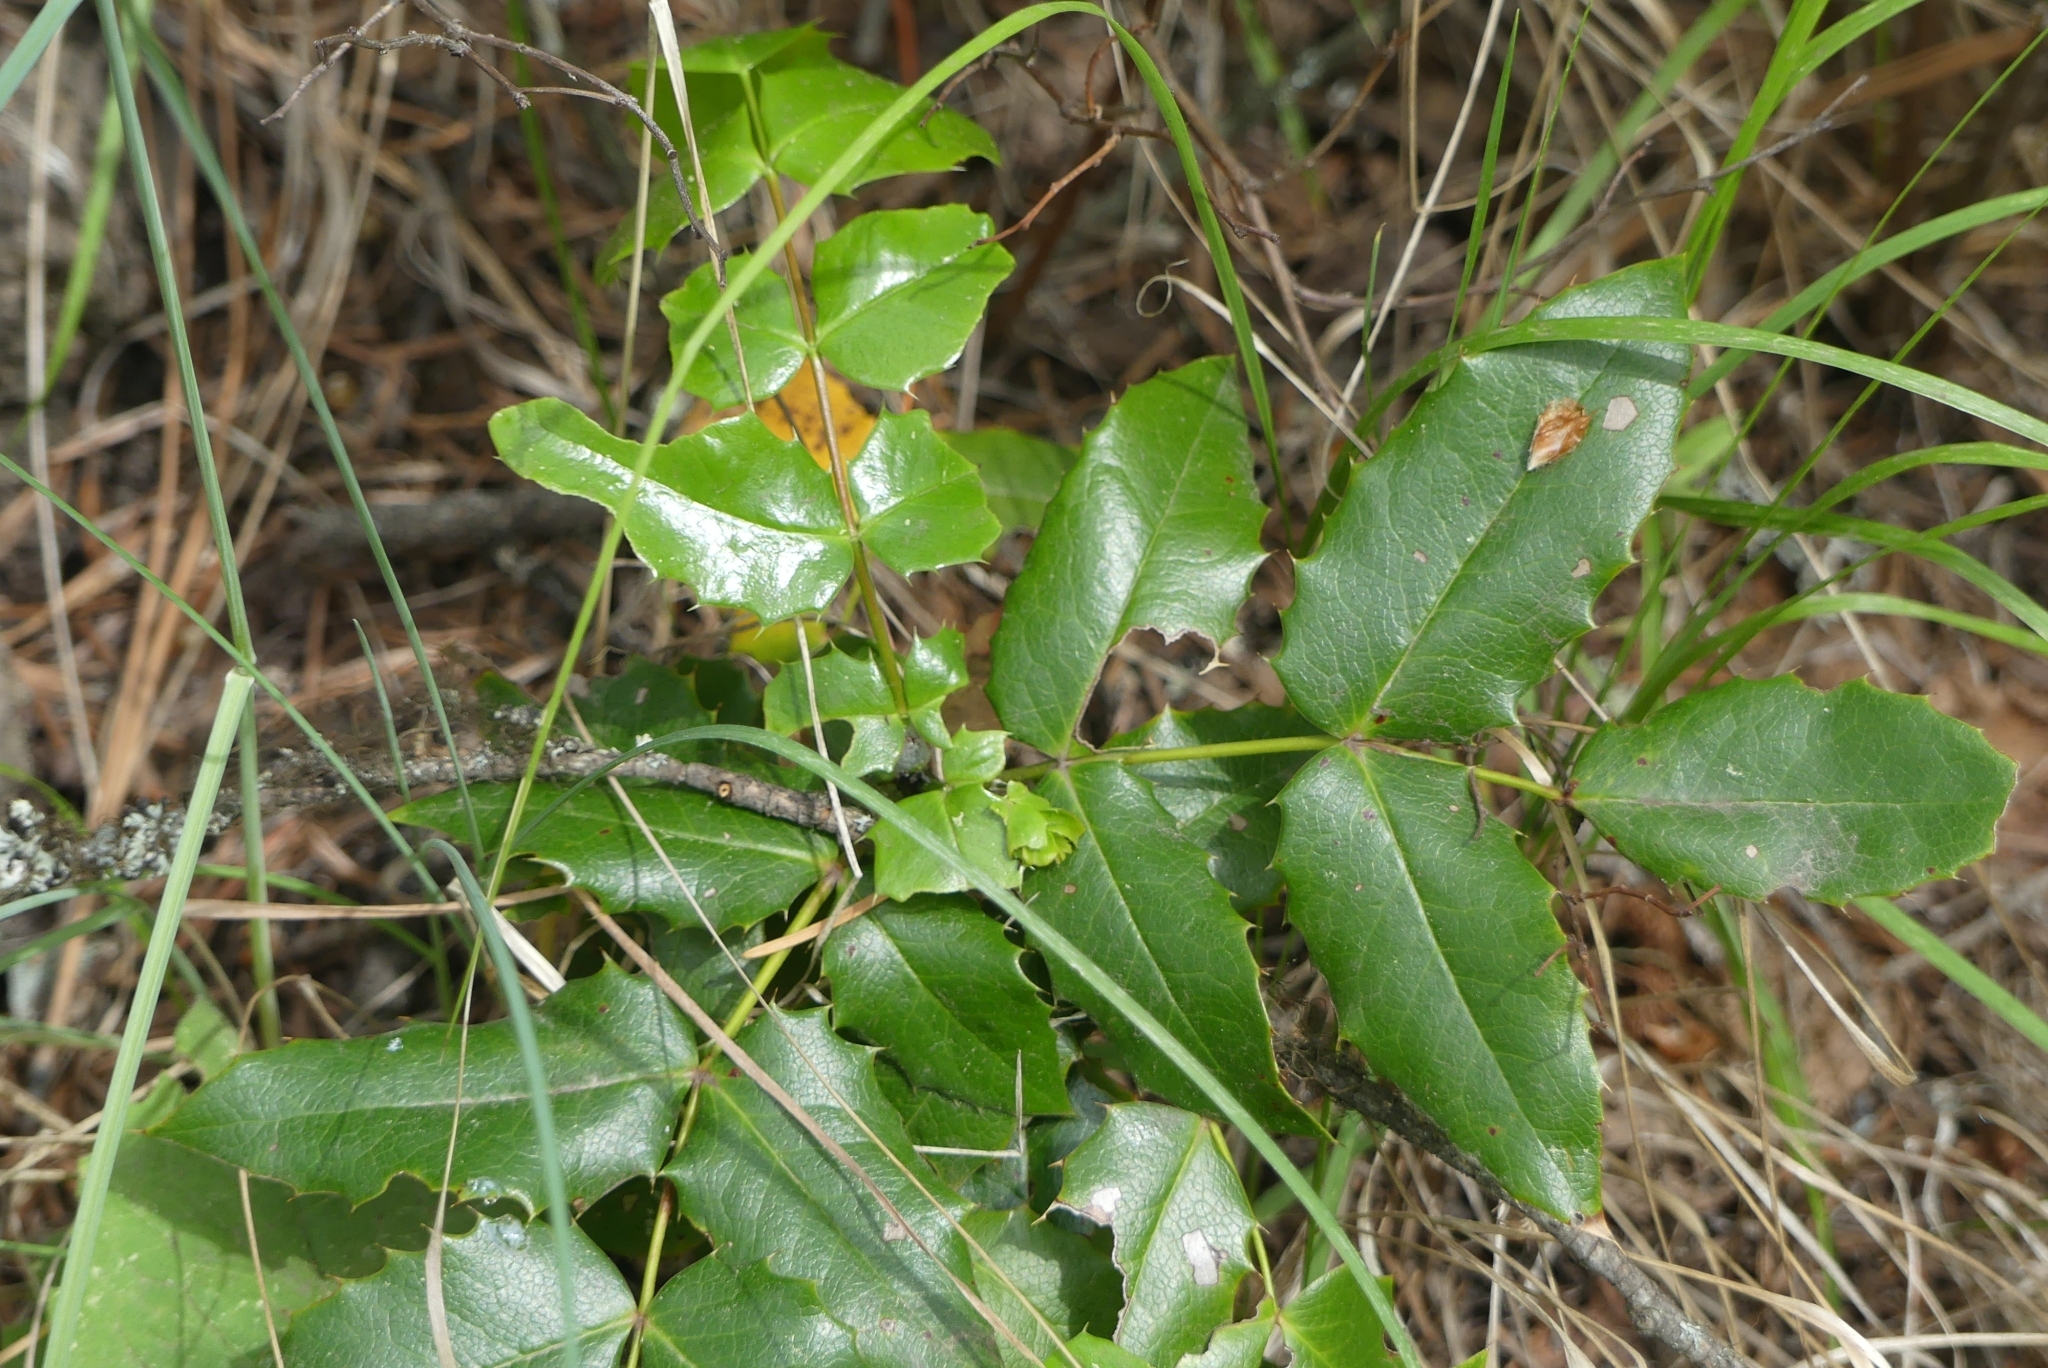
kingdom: Plantae
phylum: Tracheophyta
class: Magnoliopsida
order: Ranunculales
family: Berberidaceae
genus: Mahonia
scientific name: Mahonia aquifolium
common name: Oregon-grape
